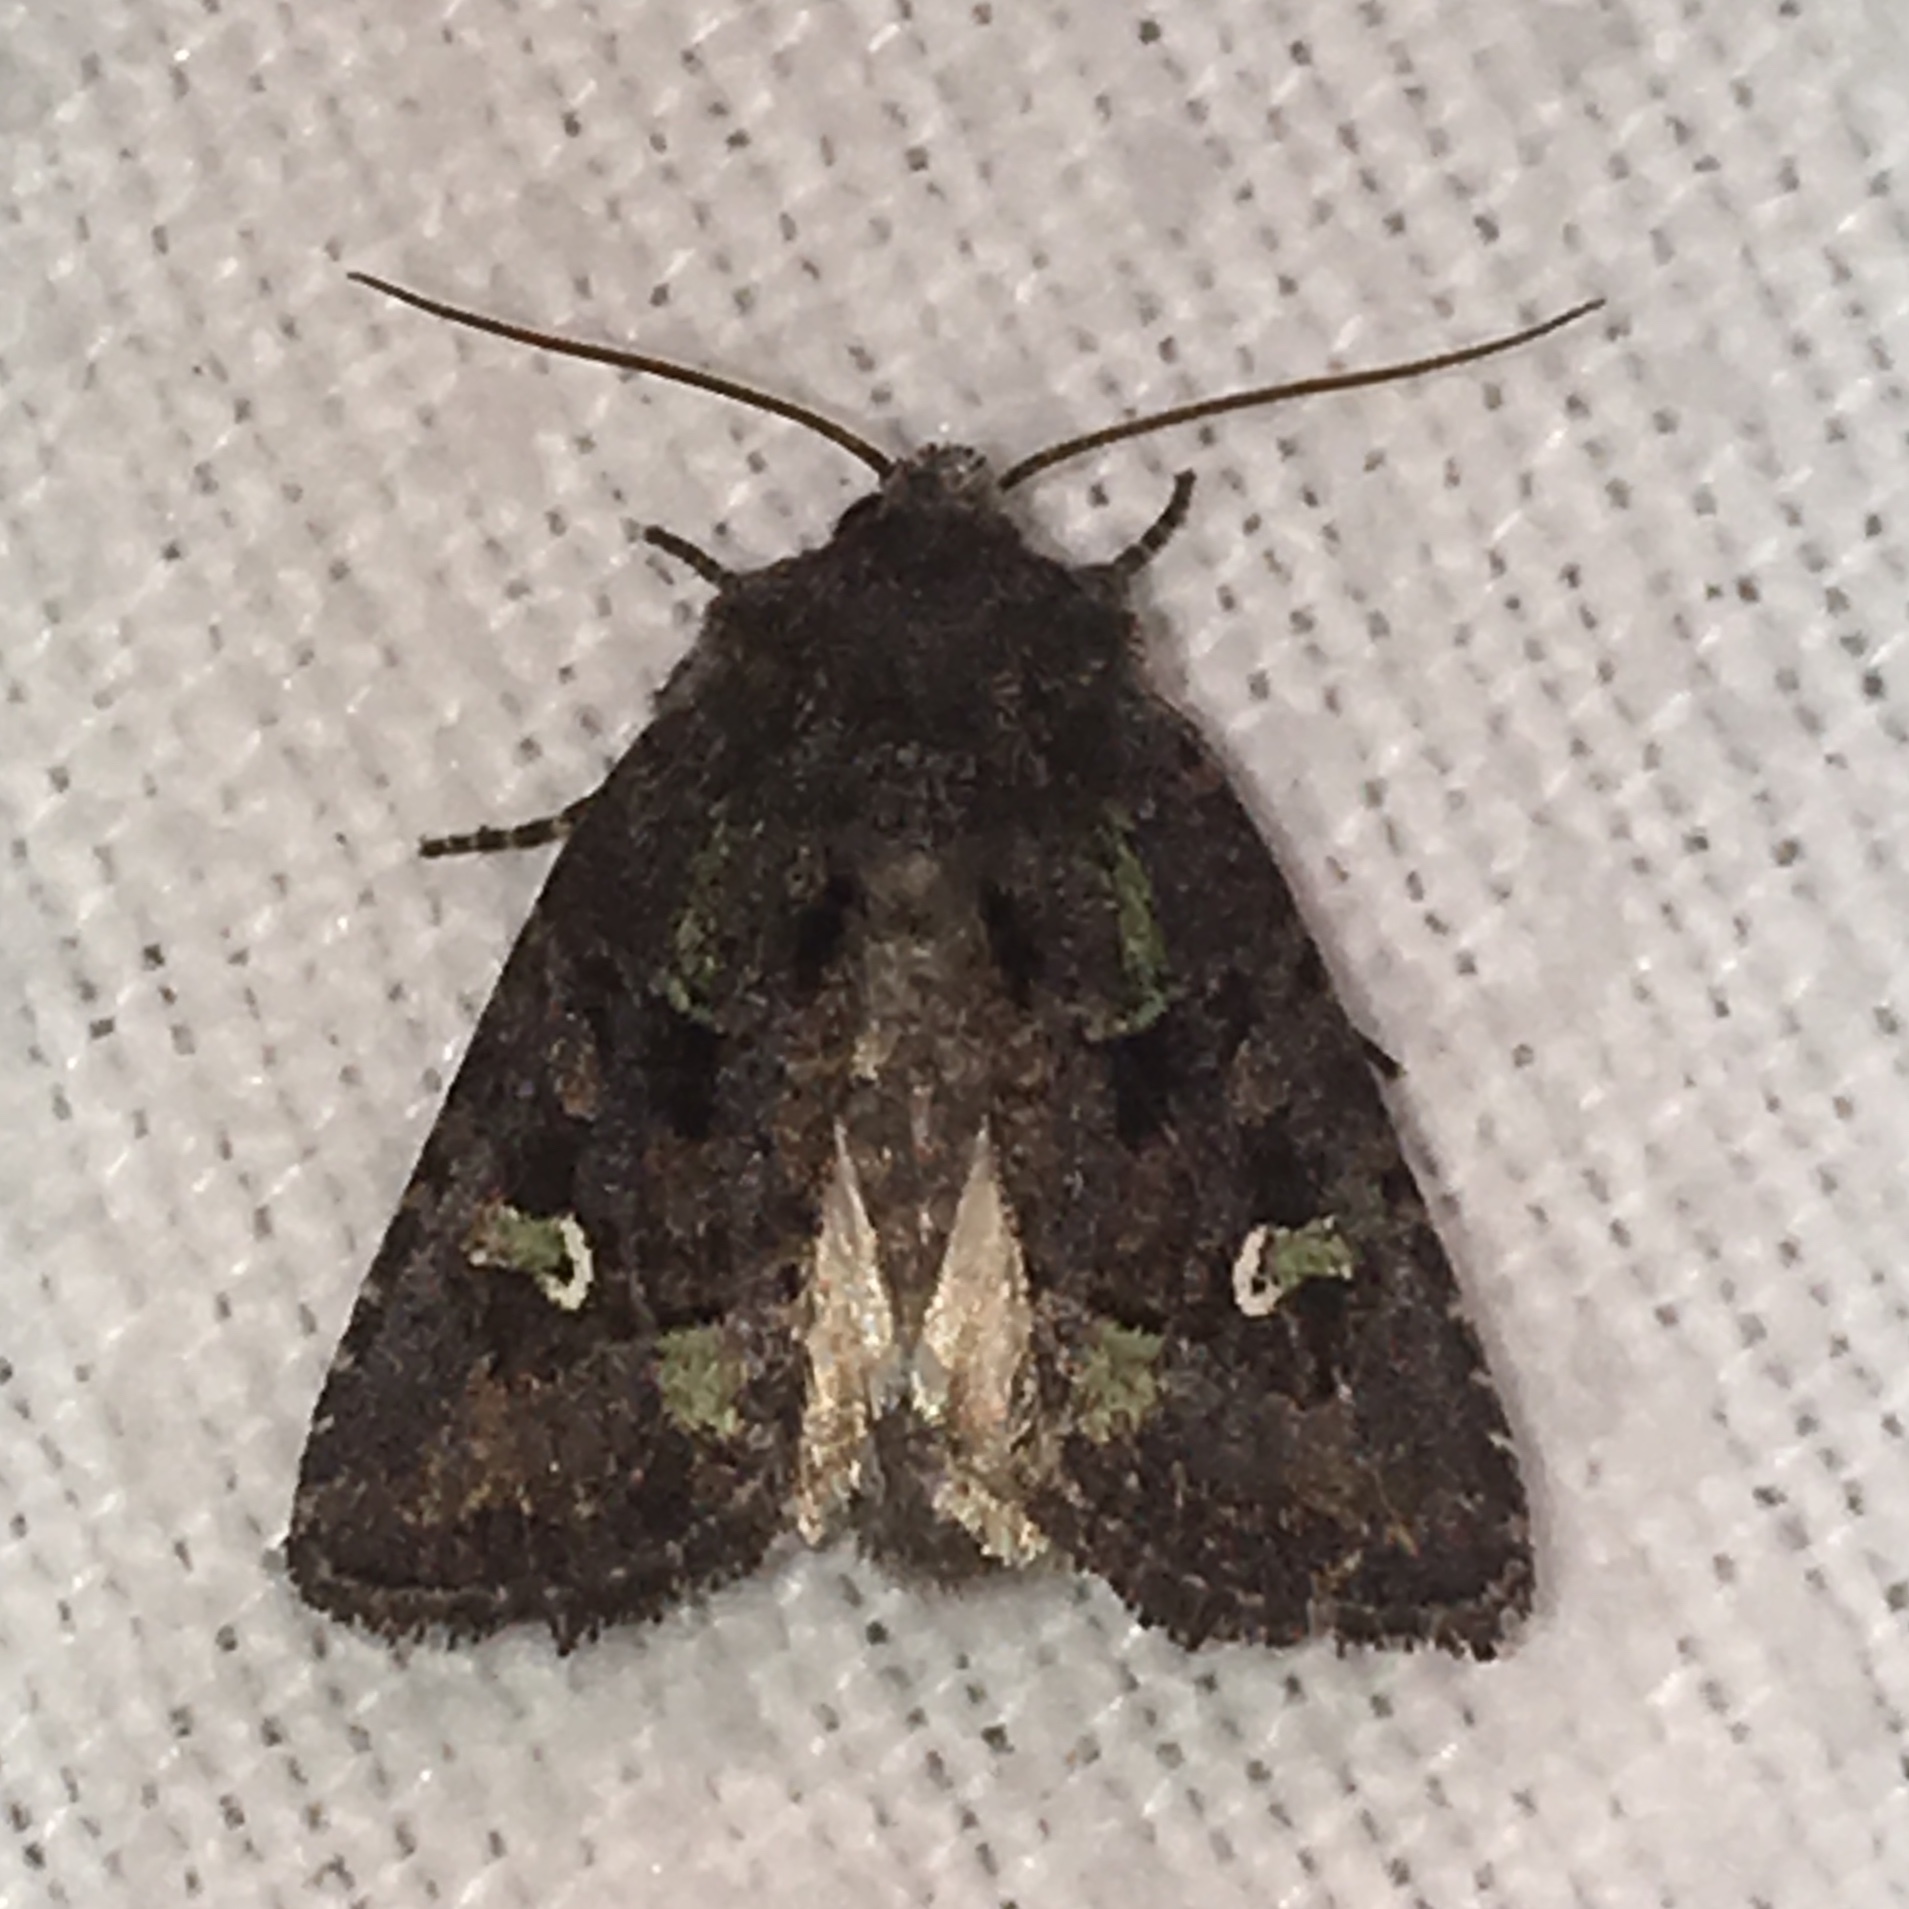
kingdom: Animalia
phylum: Arthropoda
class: Insecta
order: Lepidoptera
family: Noctuidae
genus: Lacinipolia
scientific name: Lacinipolia renigera
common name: Kidney-spotted minor
